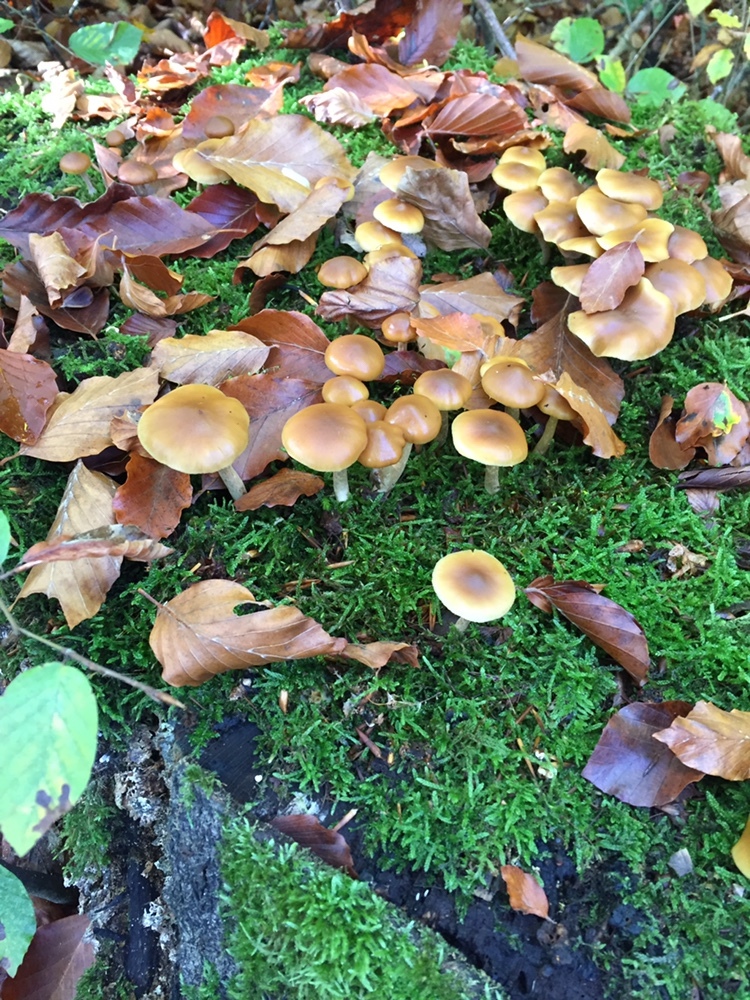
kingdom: Fungi
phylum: Basidiomycota
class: Agaricomycetes
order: Agaricales
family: Hymenogastraceae
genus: Galerina
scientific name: Galerina marginata
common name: Funeral bell
